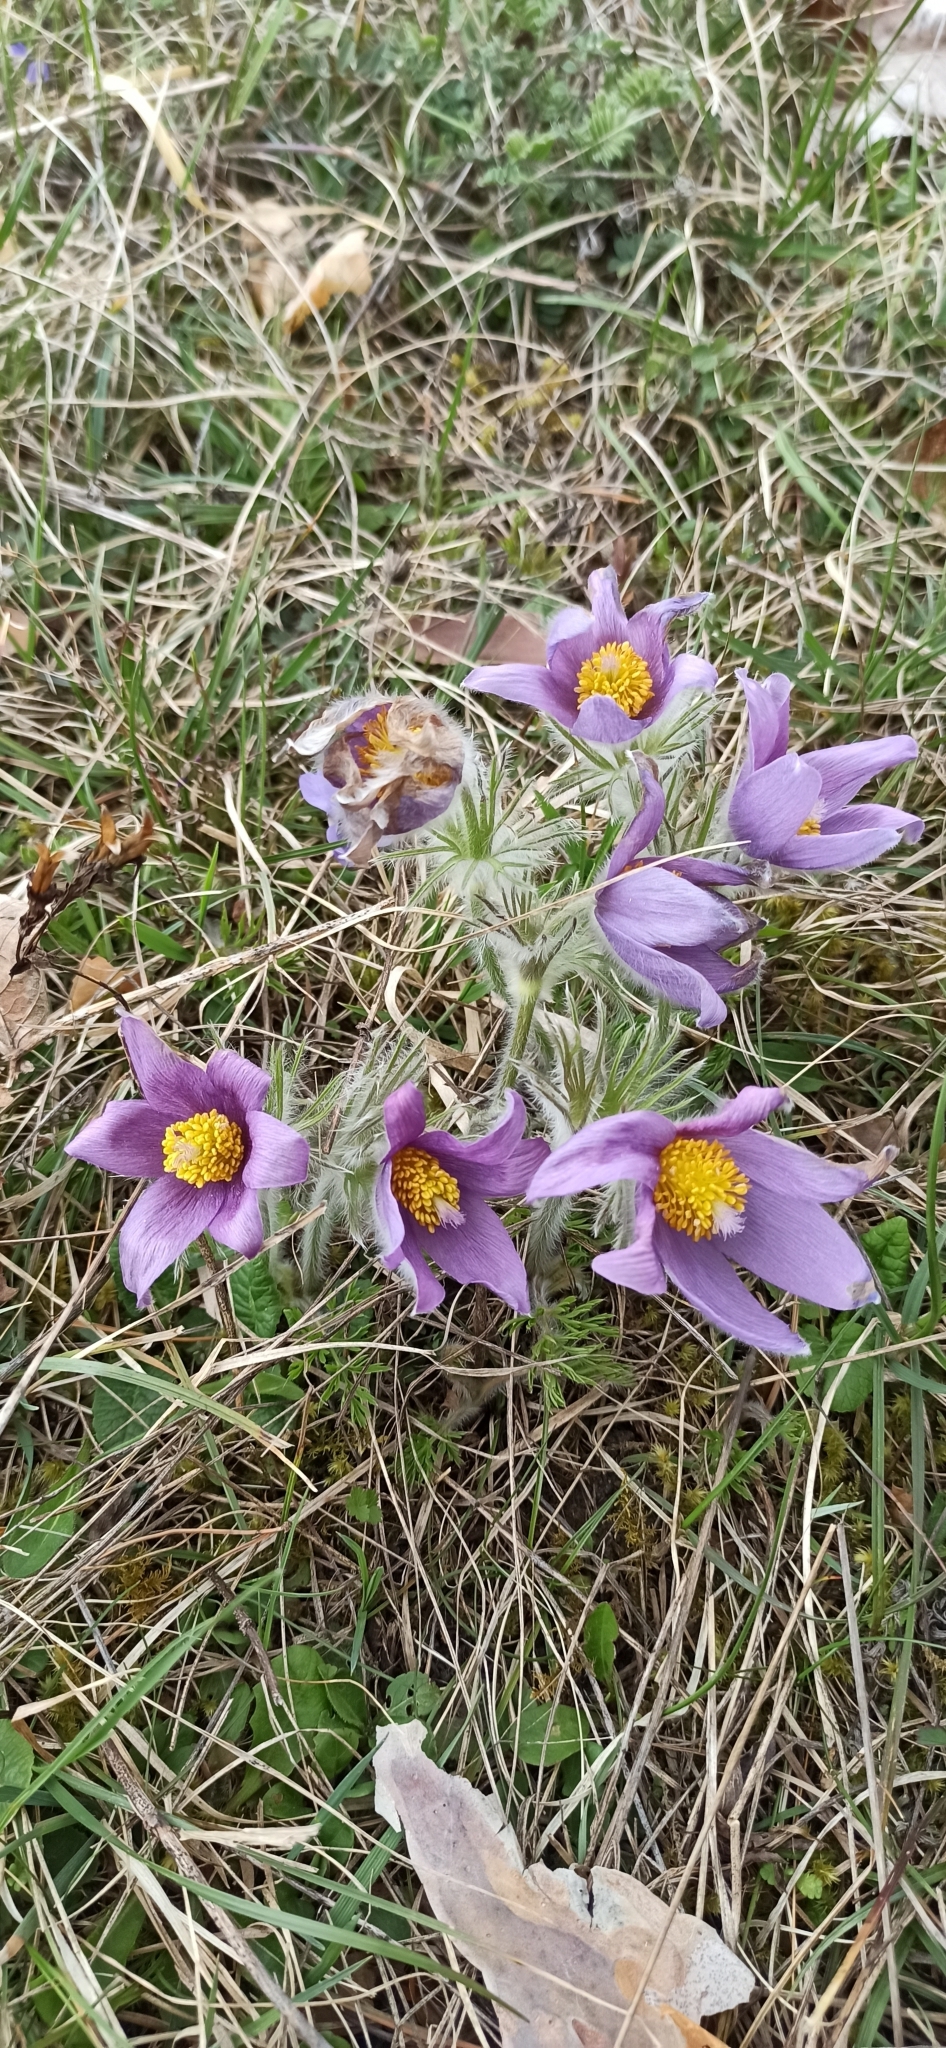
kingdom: Plantae
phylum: Tracheophyta
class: Magnoliopsida
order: Ranunculales
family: Ranunculaceae
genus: Pulsatilla
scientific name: Pulsatilla vulgaris
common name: Pasqueflower
